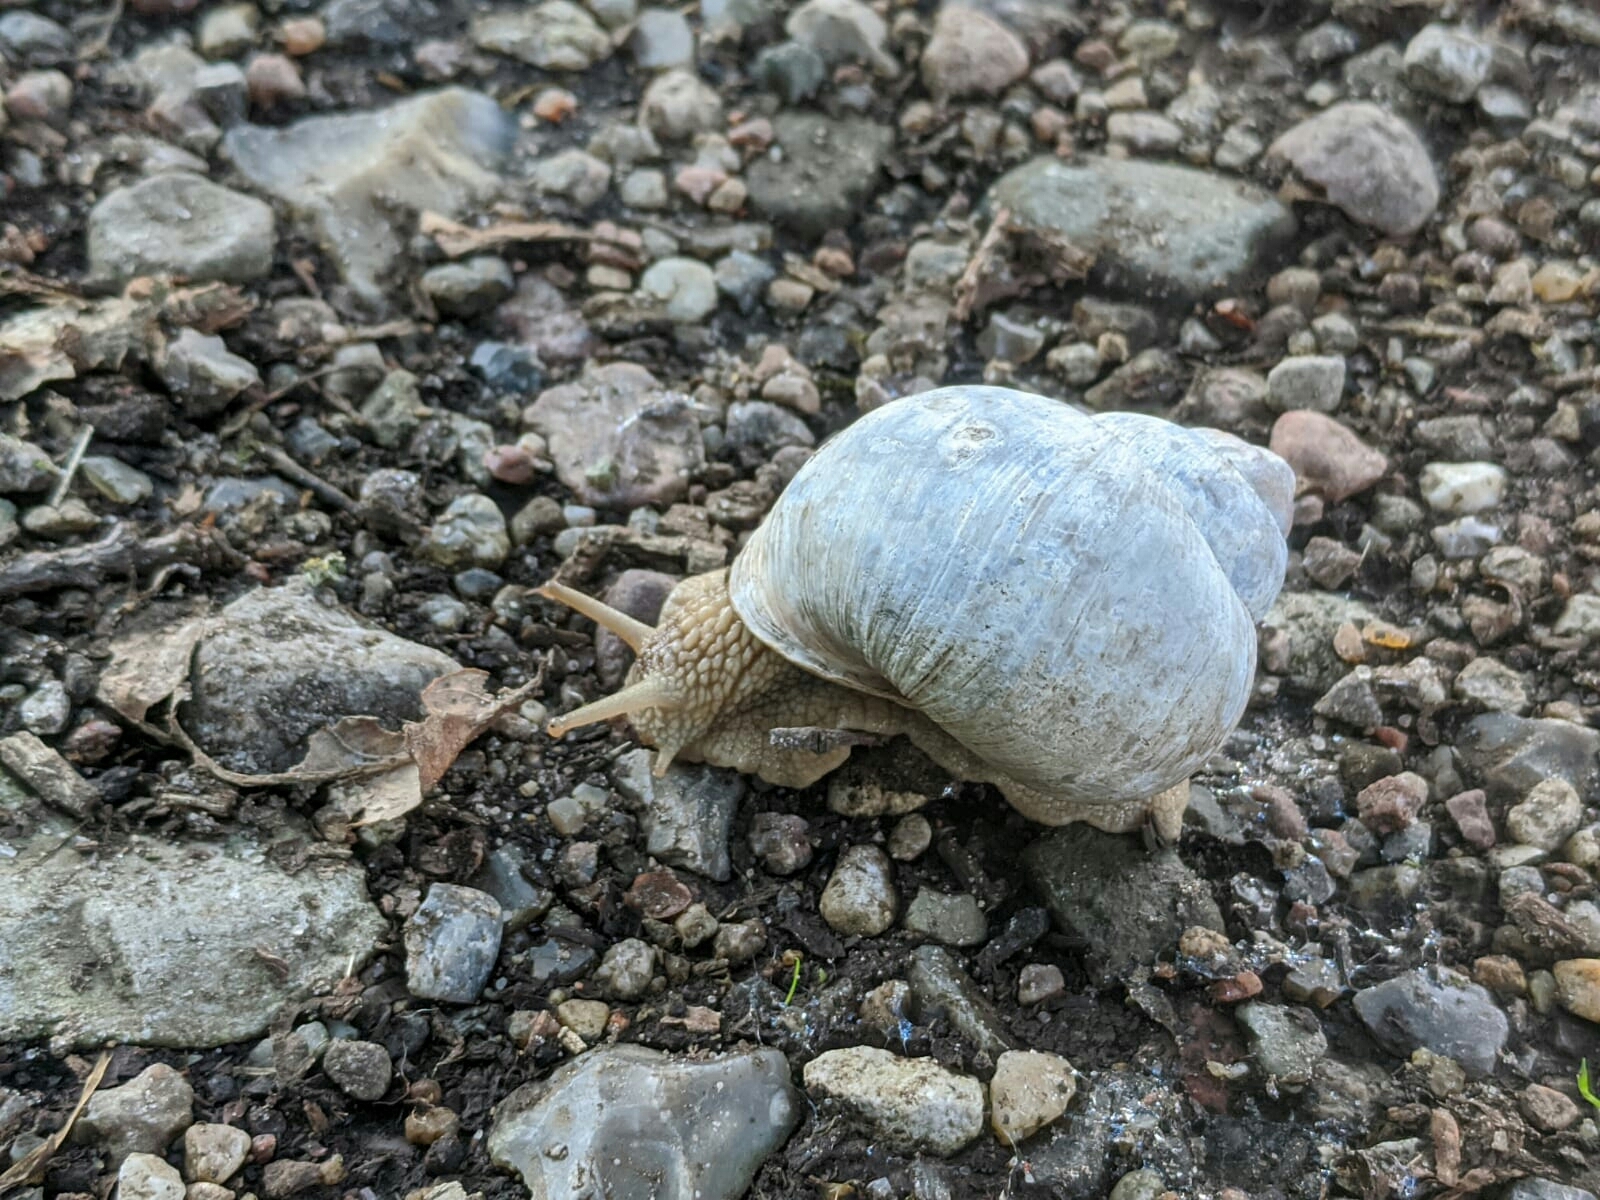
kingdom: Animalia
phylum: Mollusca
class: Gastropoda
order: Stylommatophora
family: Helicidae
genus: Helix
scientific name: Helix pomatia
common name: Roman snail
